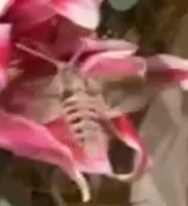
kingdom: Animalia
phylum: Arthropoda
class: Insecta
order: Lepidoptera
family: Sphingidae
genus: Agrius
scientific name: Agrius convolvuli
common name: Convolvulus hawkmoth
